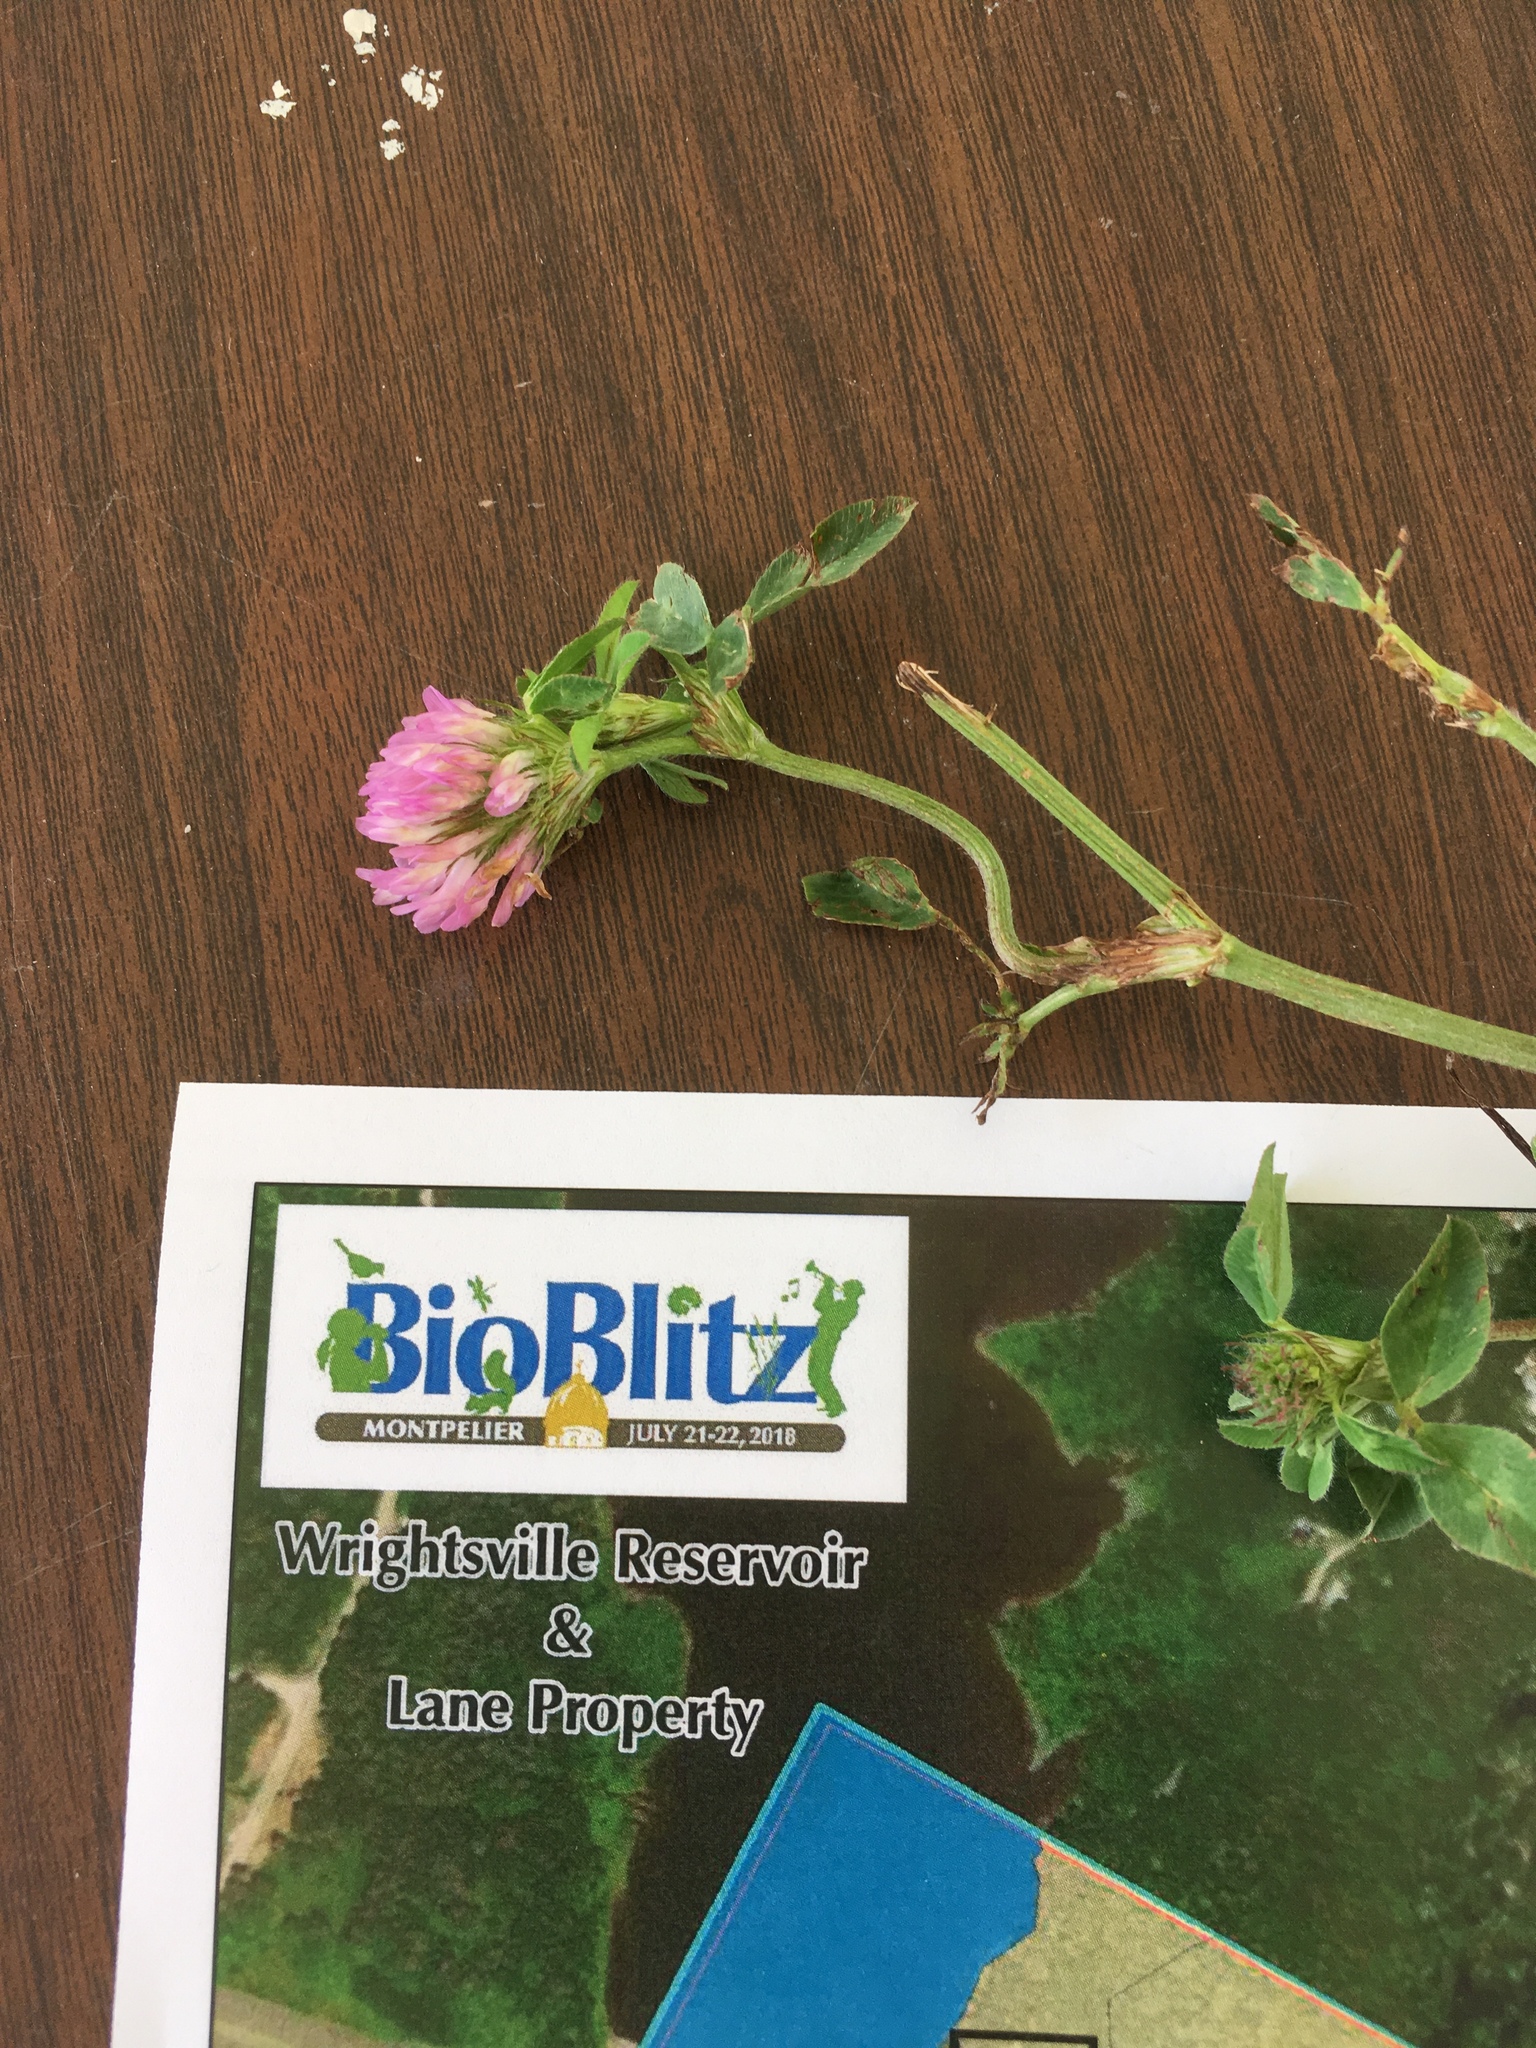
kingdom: Plantae
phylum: Tracheophyta
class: Magnoliopsida
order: Fabales
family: Fabaceae
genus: Trifolium
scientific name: Trifolium pratense
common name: Red clover
